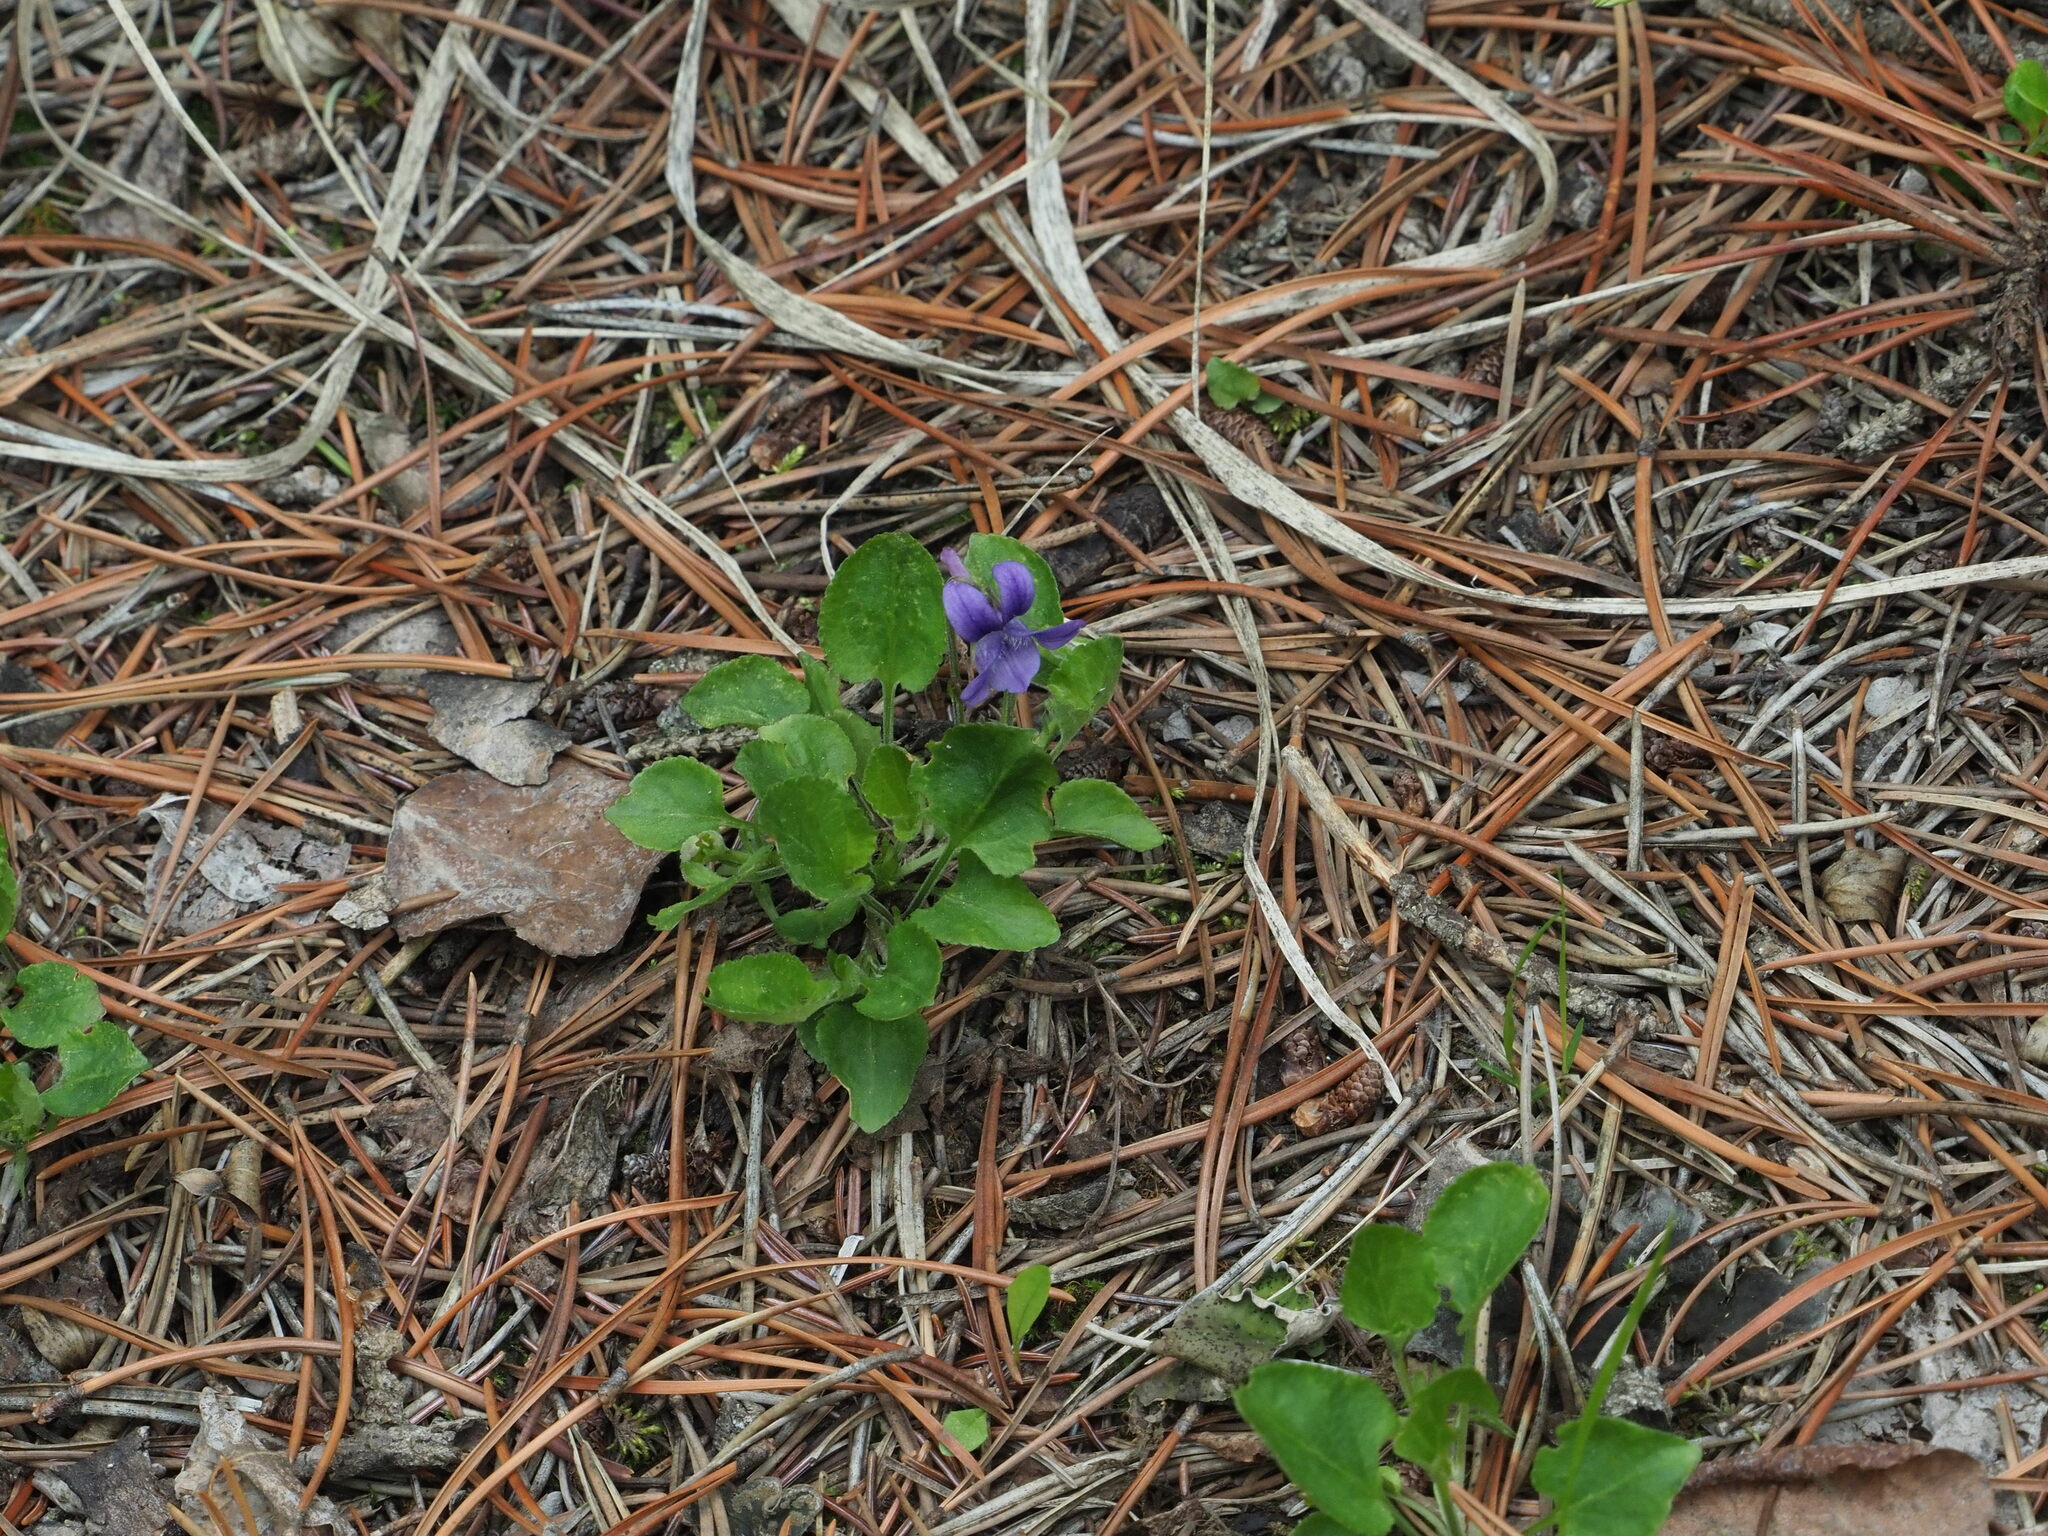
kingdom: Plantae
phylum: Tracheophyta
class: Magnoliopsida
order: Malpighiales
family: Violaceae
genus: Viola
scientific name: Viola adunca
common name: Sand violet
